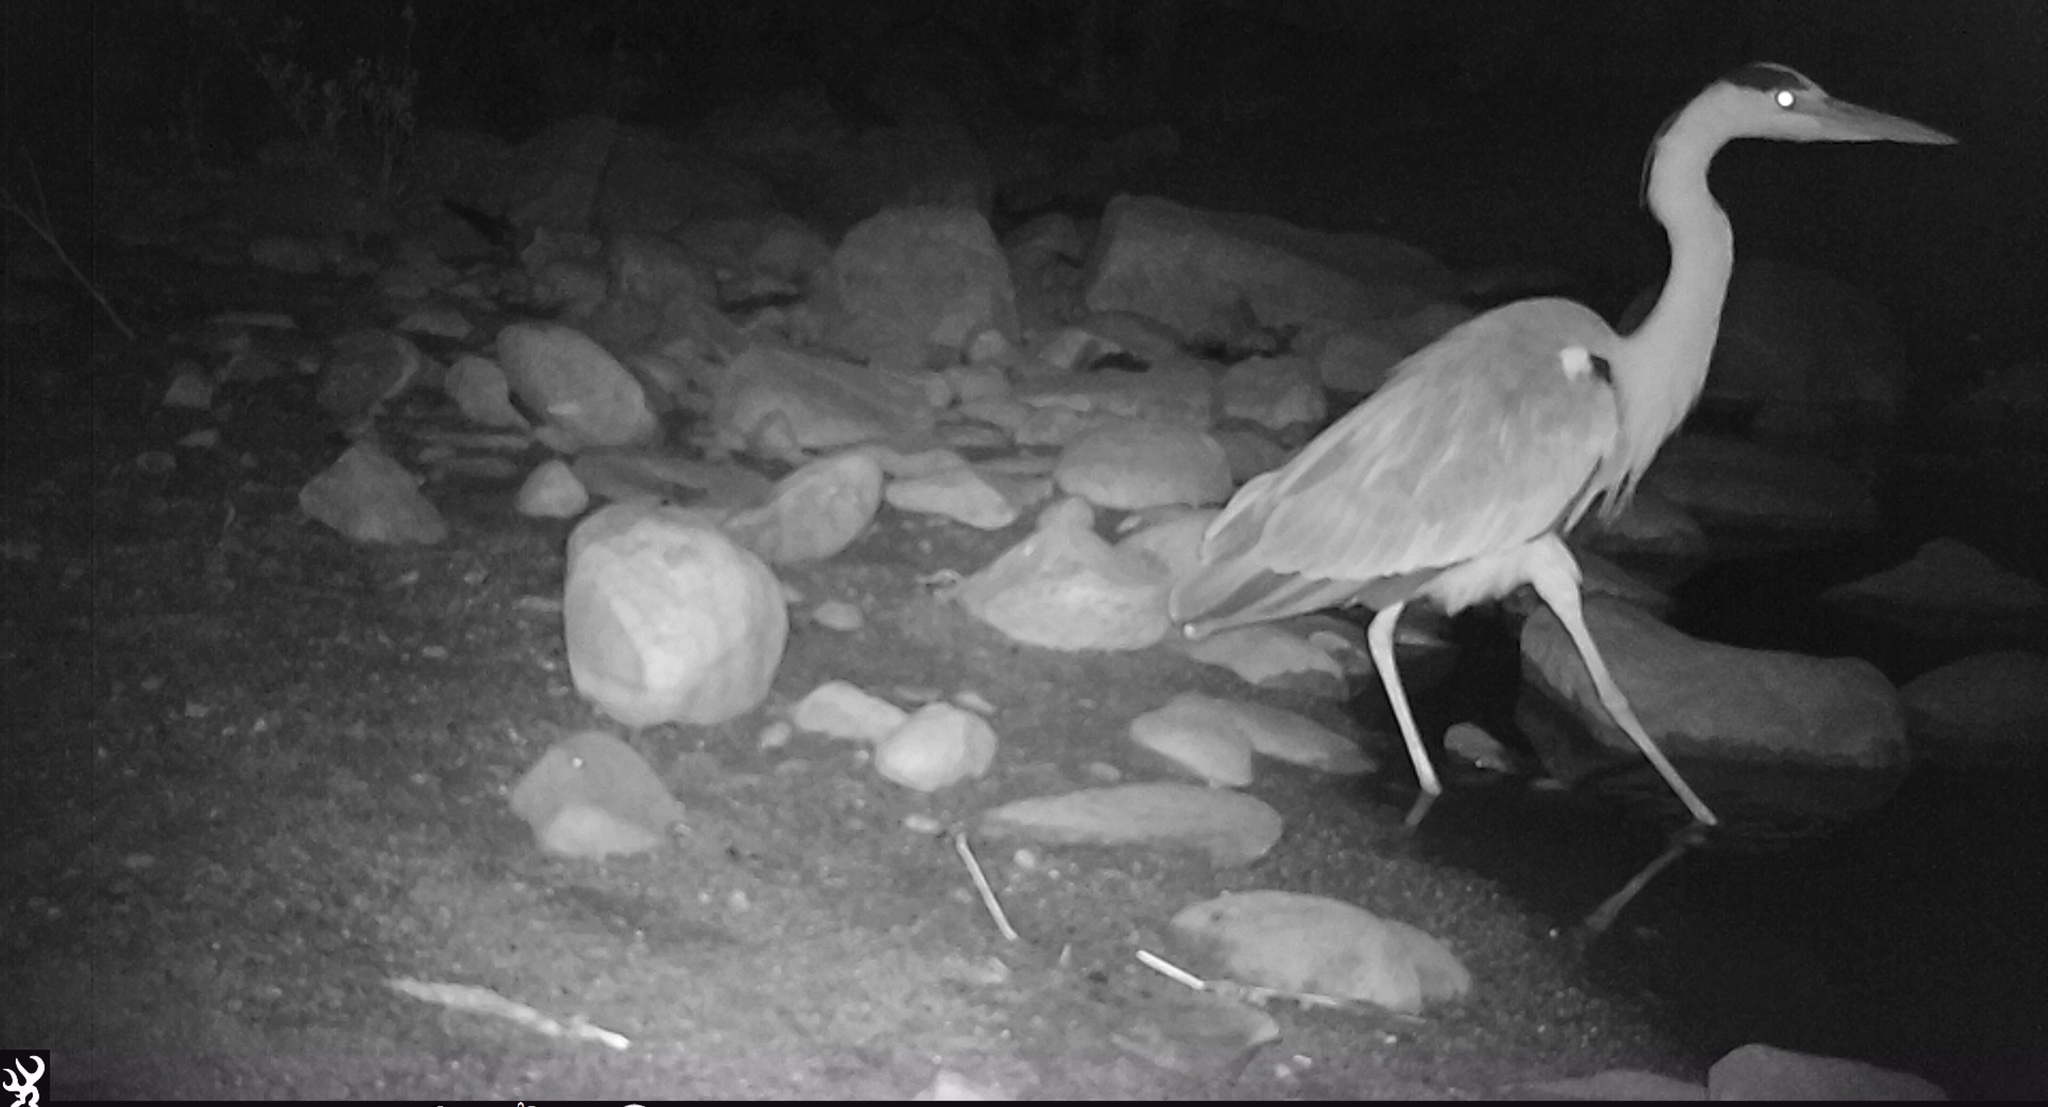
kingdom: Animalia
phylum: Chordata
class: Aves
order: Pelecaniformes
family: Ardeidae
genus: Ardea
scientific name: Ardea cinerea
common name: Grey heron
